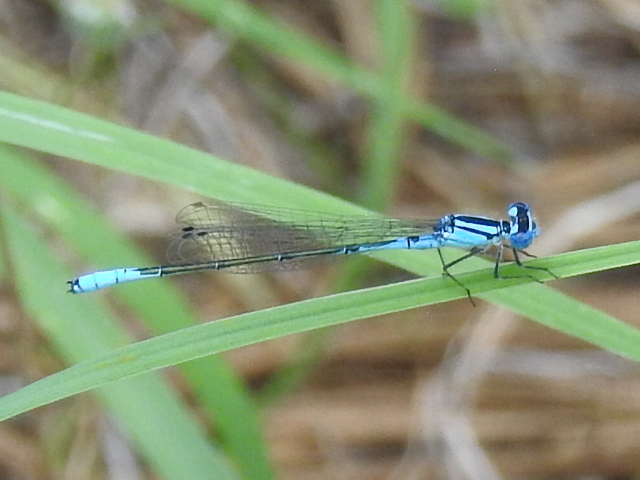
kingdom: Animalia
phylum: Arthropoda
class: Insecta
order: Odonata
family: Coenagrionidae
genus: Enallagma
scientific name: Enallagma aspersum
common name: Azure bluet
